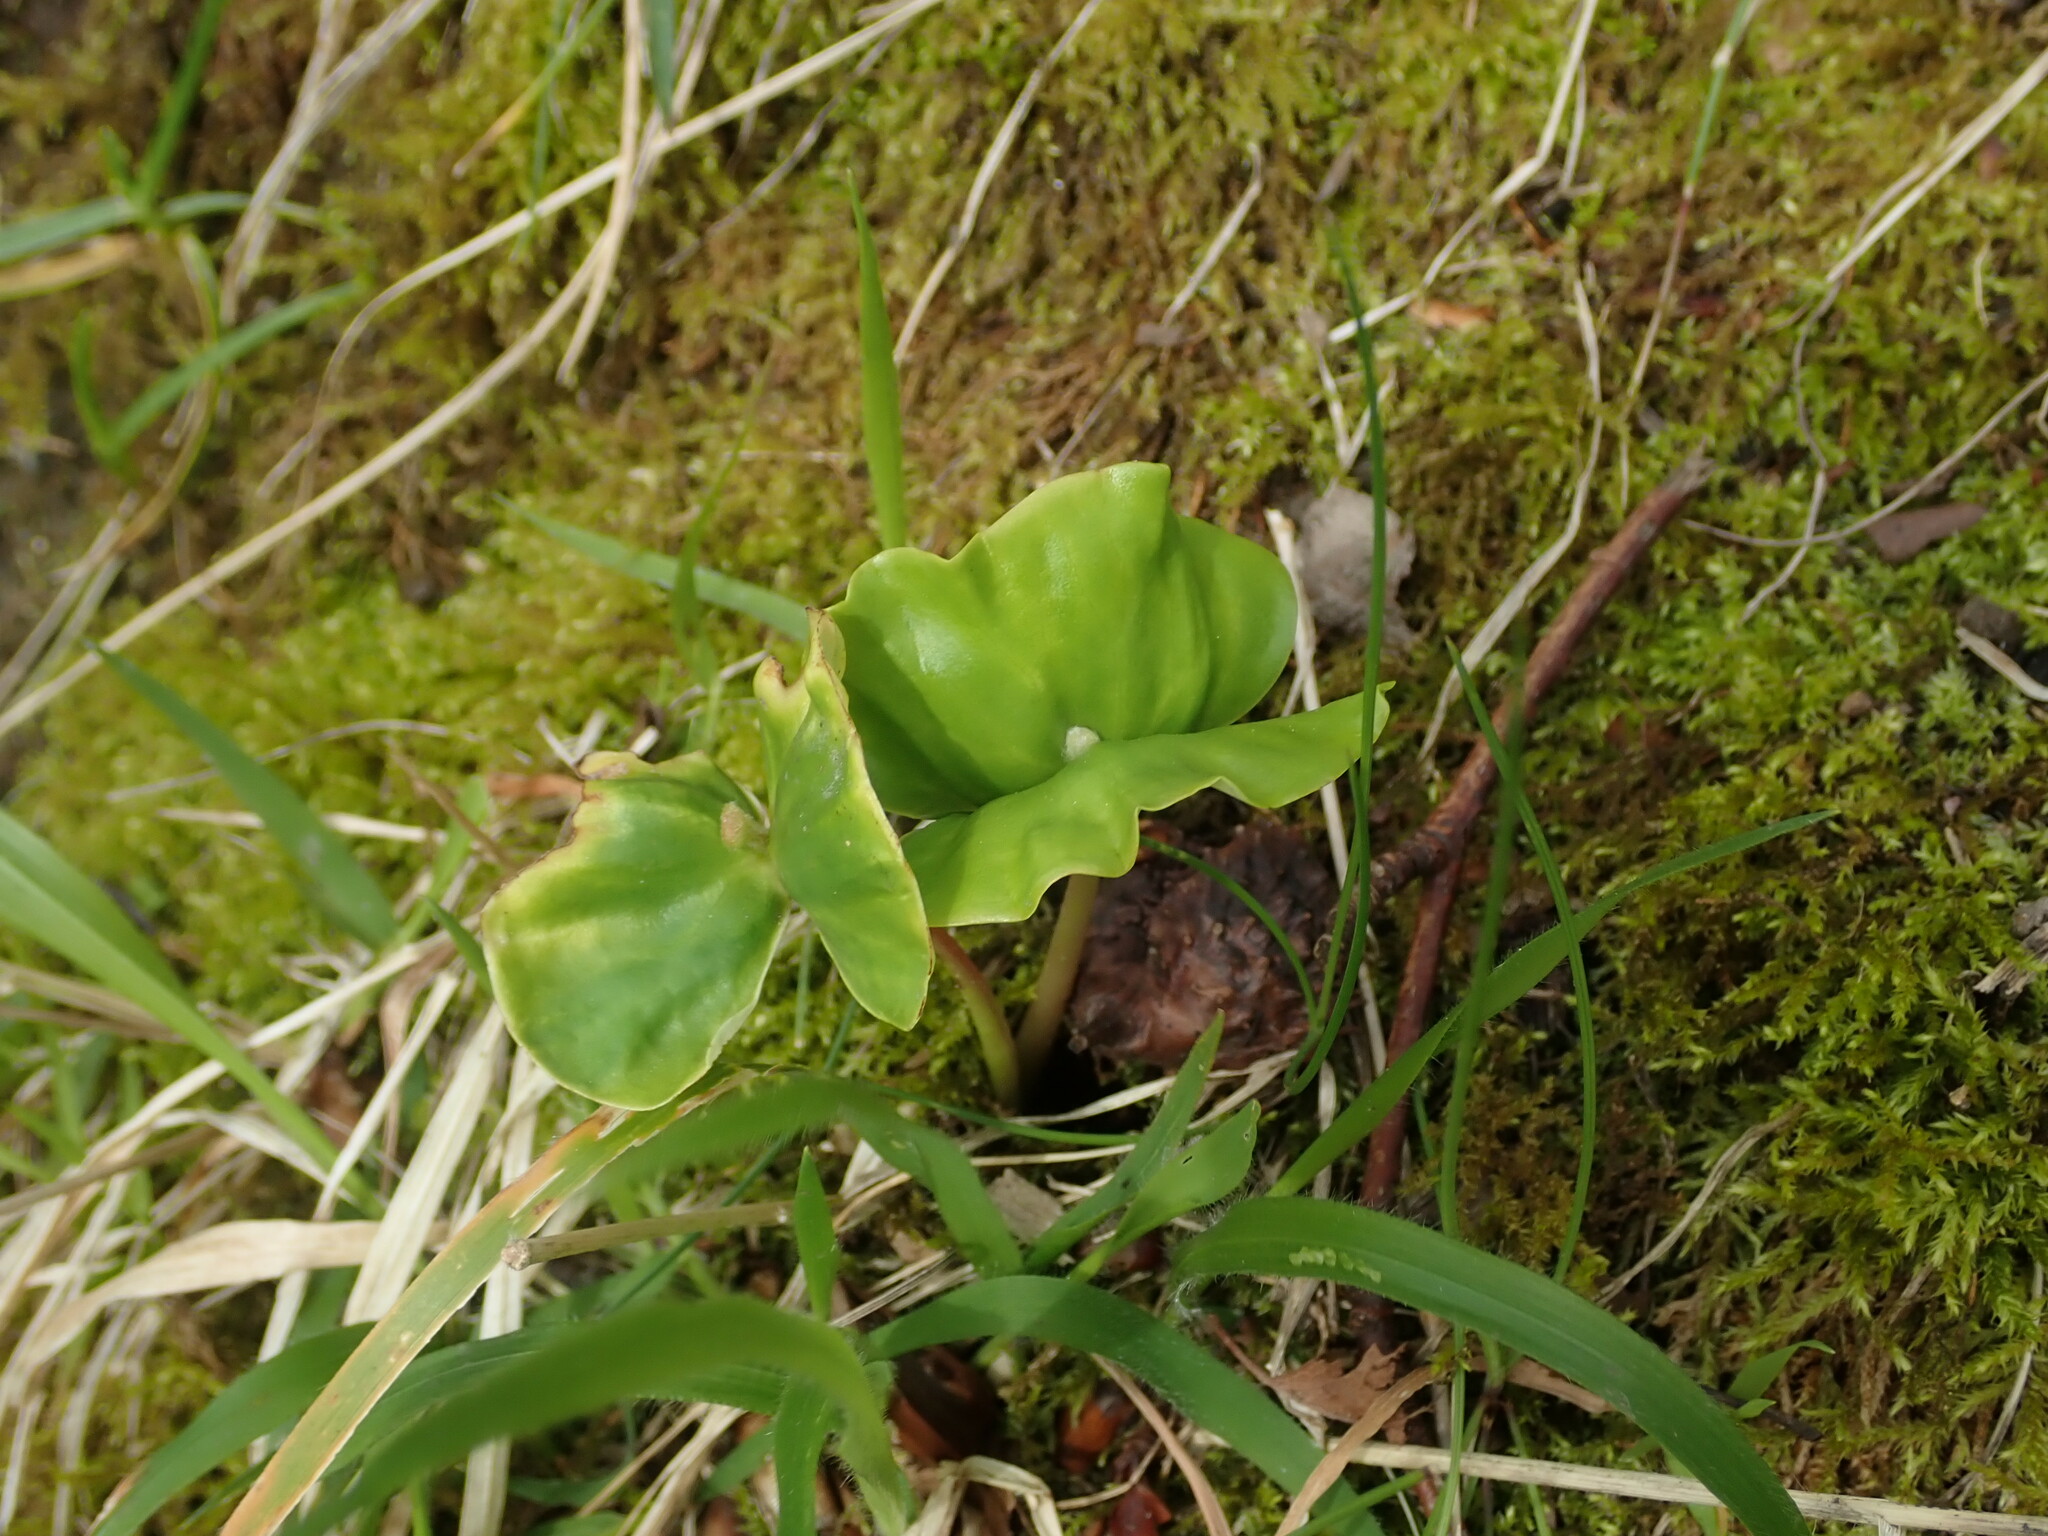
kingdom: Plantae
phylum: Tracheophyta
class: Magnoliopsida
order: Fagales
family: Fagaceae
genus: Fagus
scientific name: Fagus sylvatica
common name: Beech
